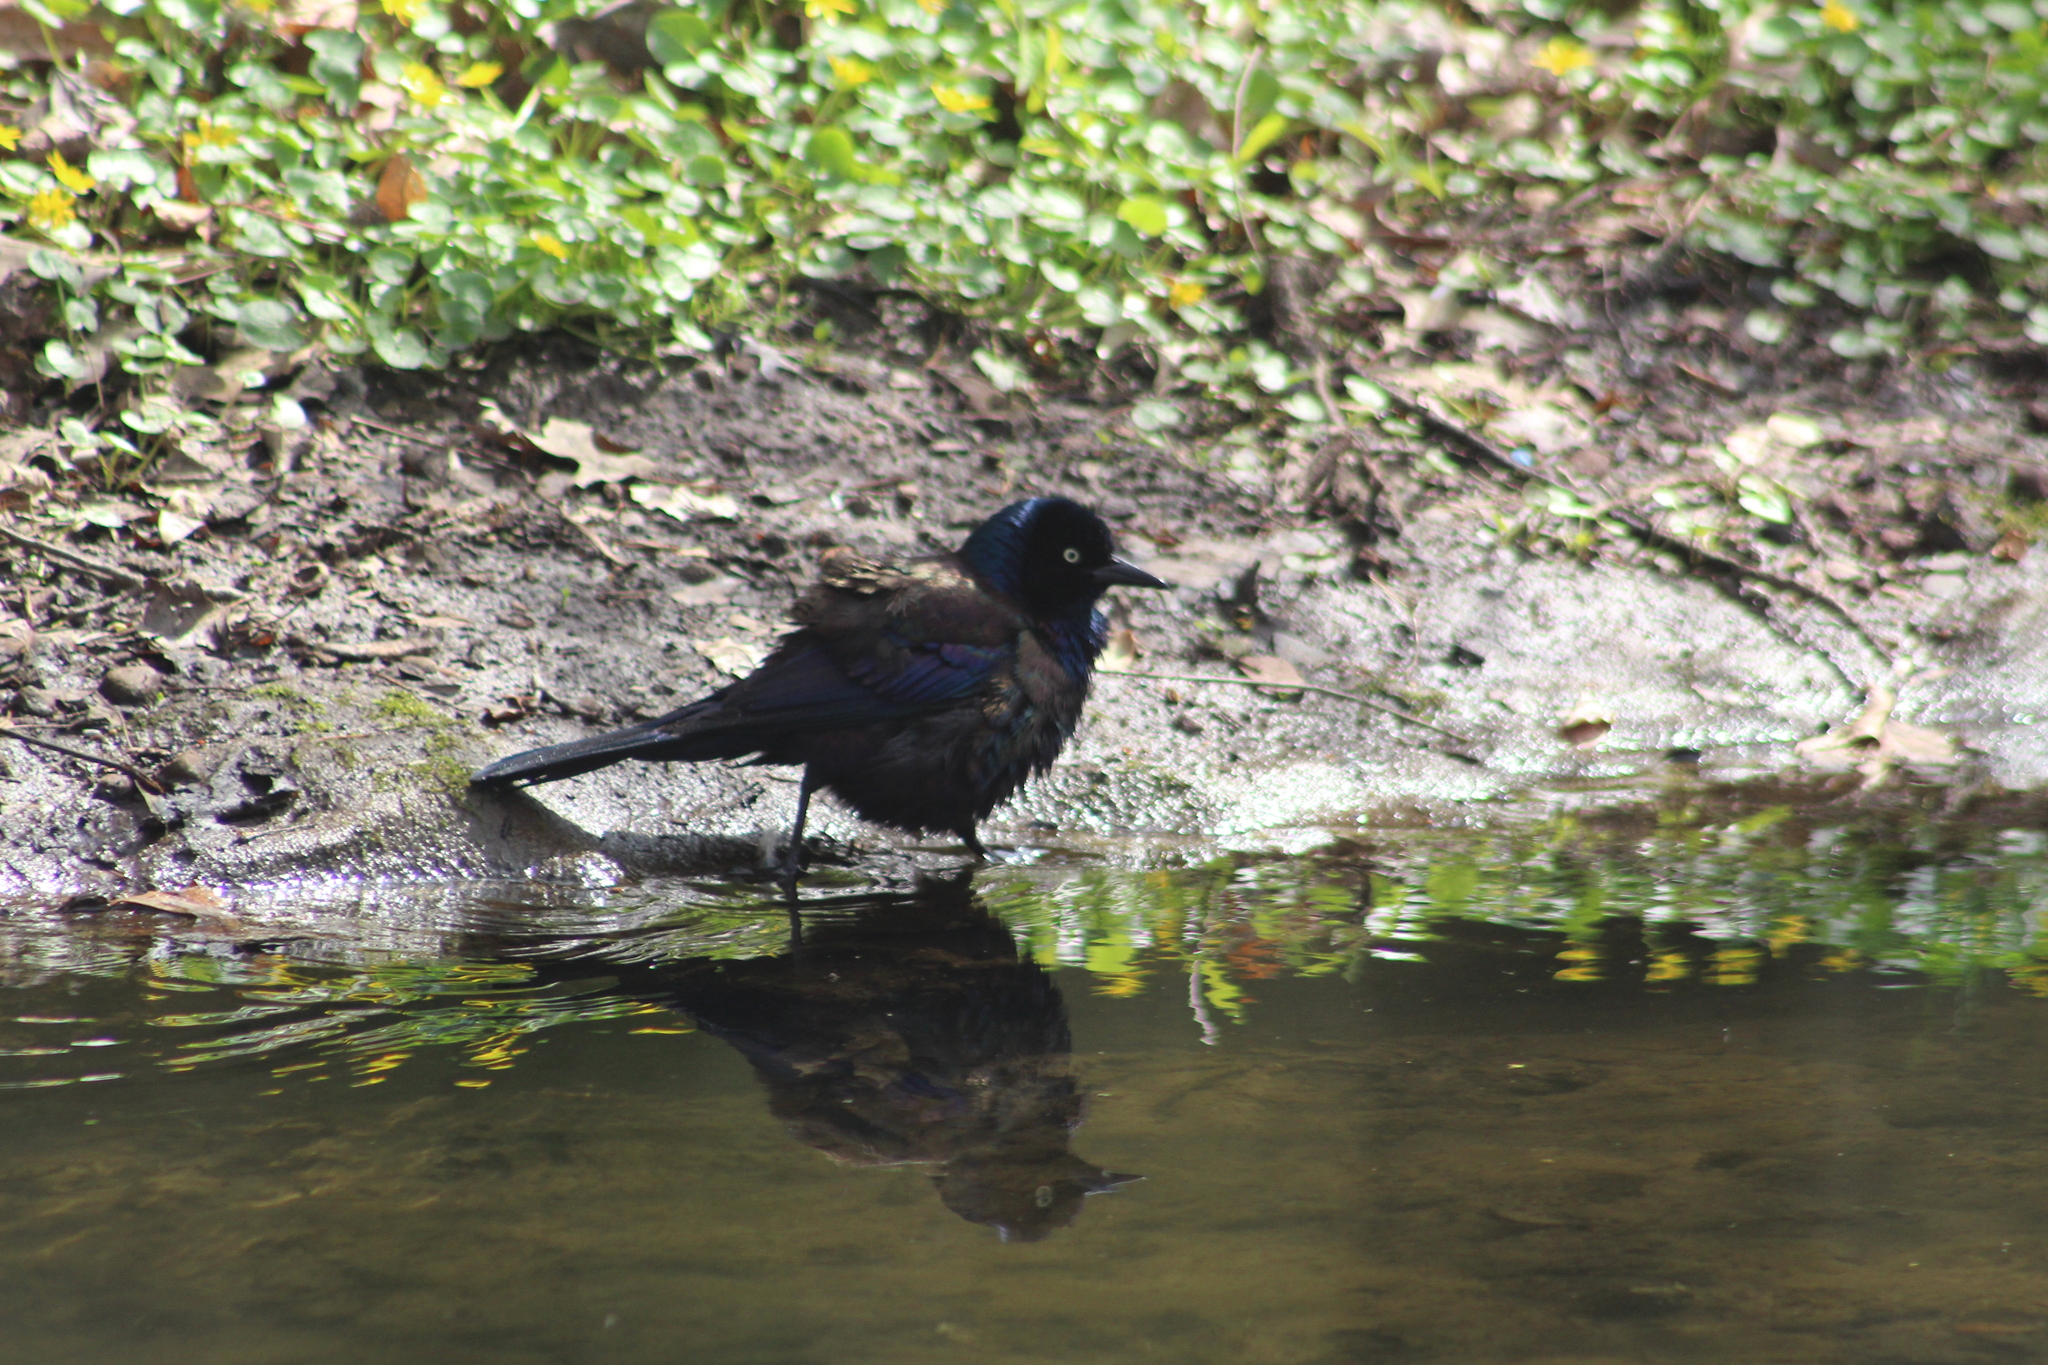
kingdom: Animalia
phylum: Chordata
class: Aves
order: Passeriformes
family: Icteridae
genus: Quiscalus
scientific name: Quiscalus quiscula
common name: Common grackle
